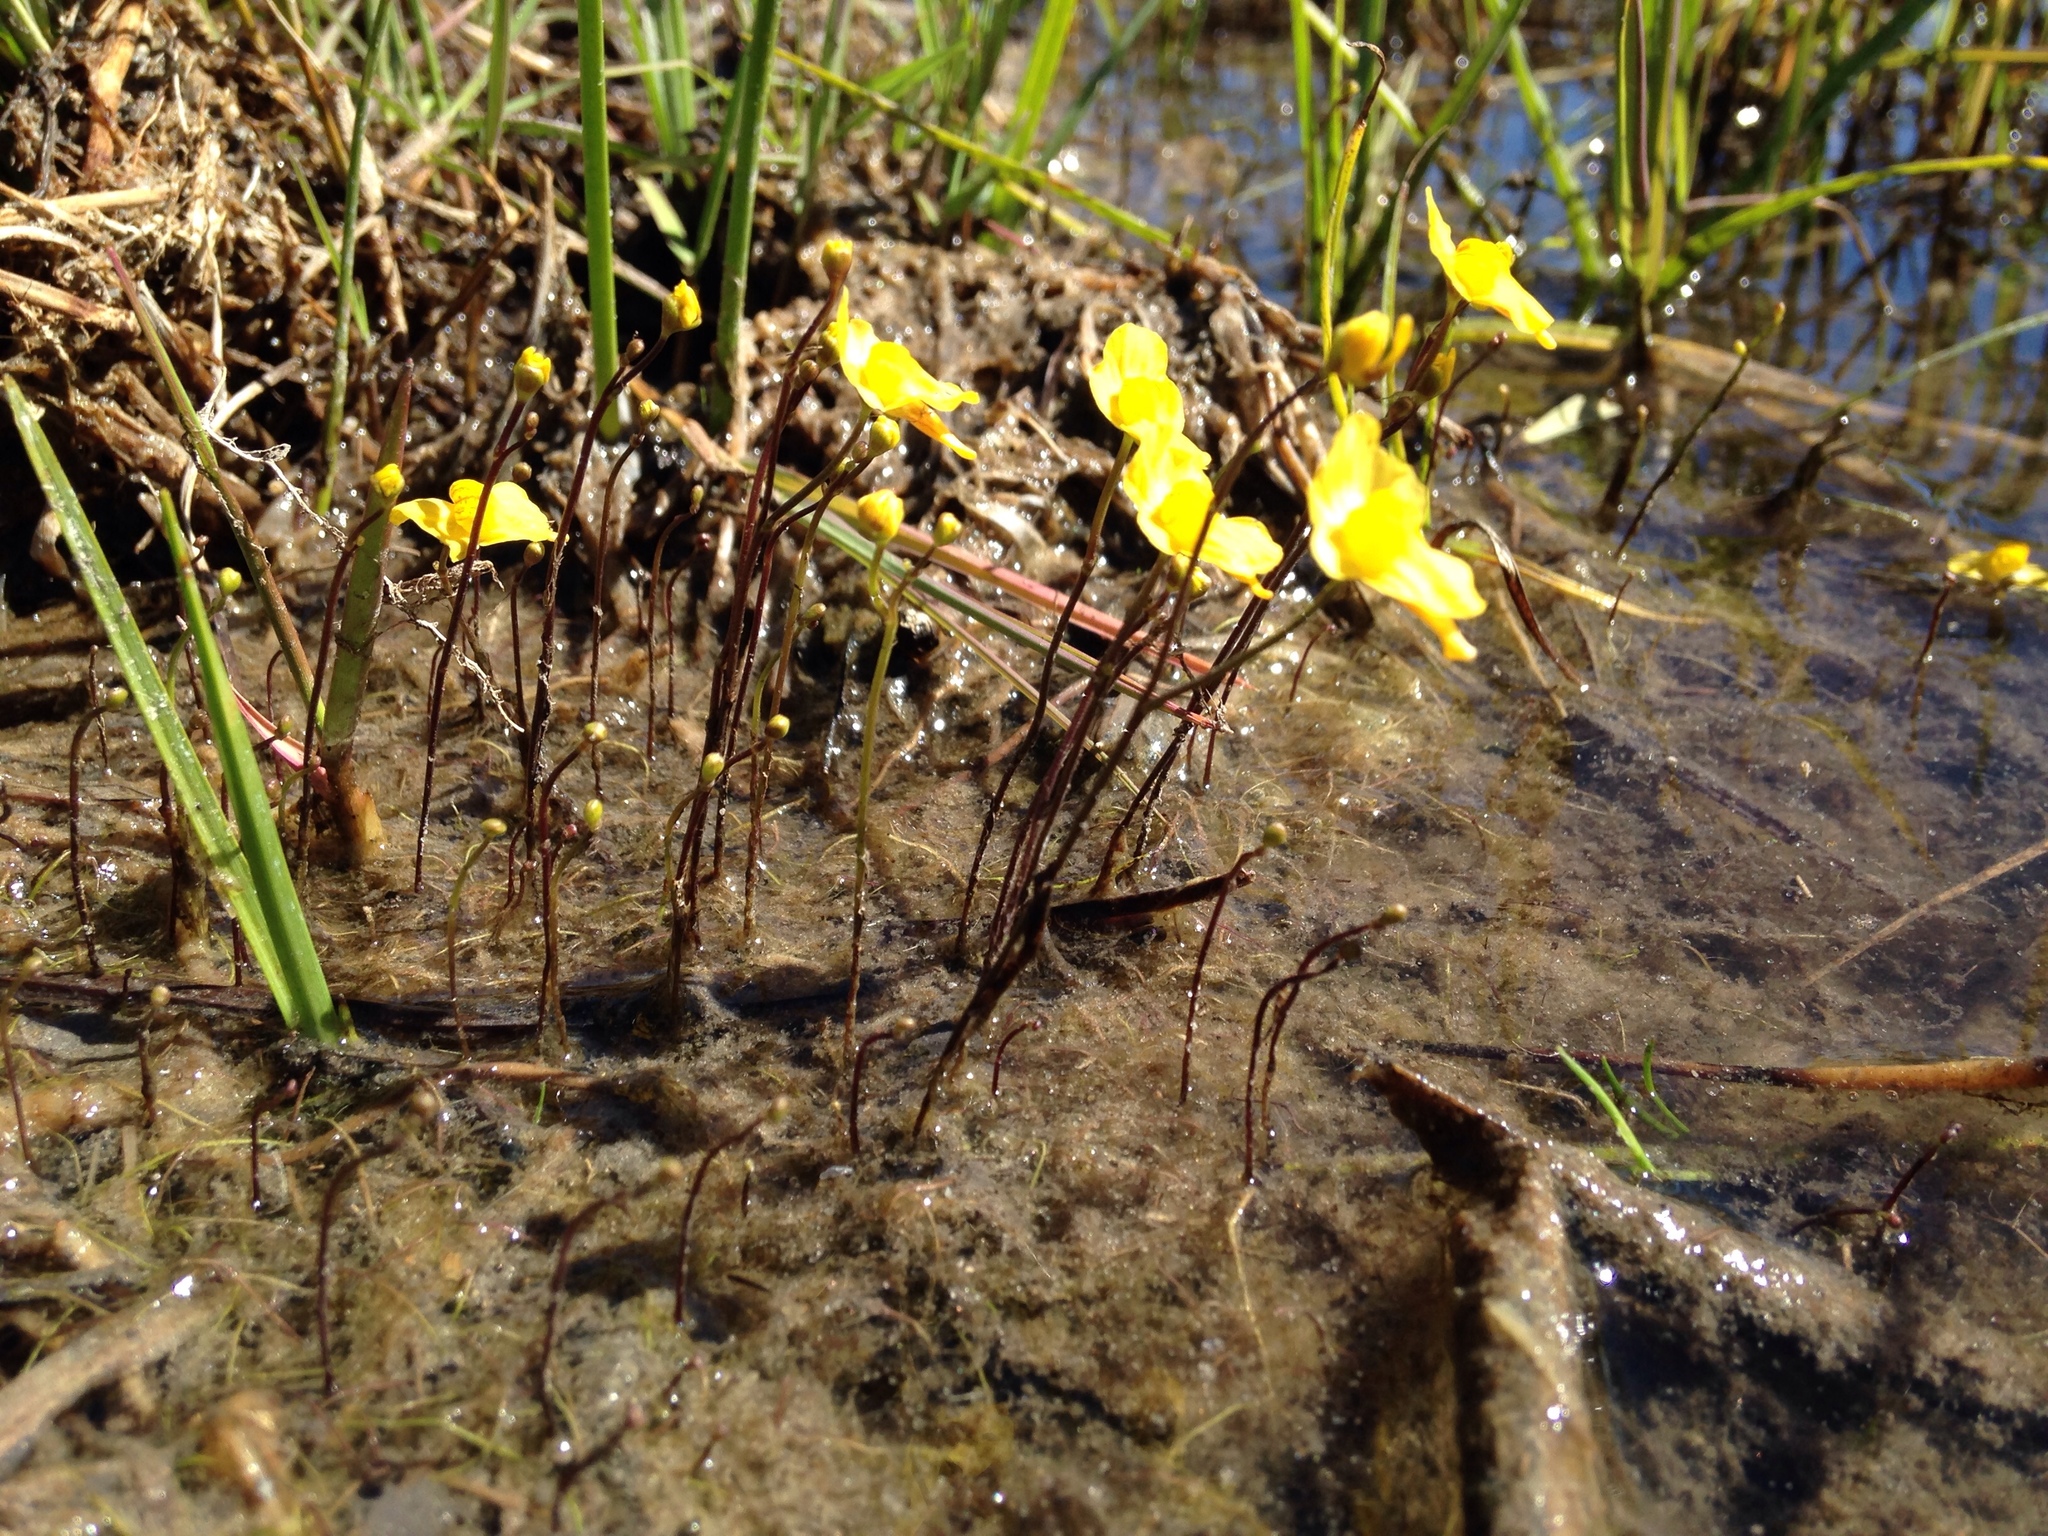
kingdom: Plantae
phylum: Tracheophyta
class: Magnoliopsida
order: Lamiales
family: Lentibulariaceae
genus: Utricularia
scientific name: Utricularia gibba
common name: Humped bladderwort
